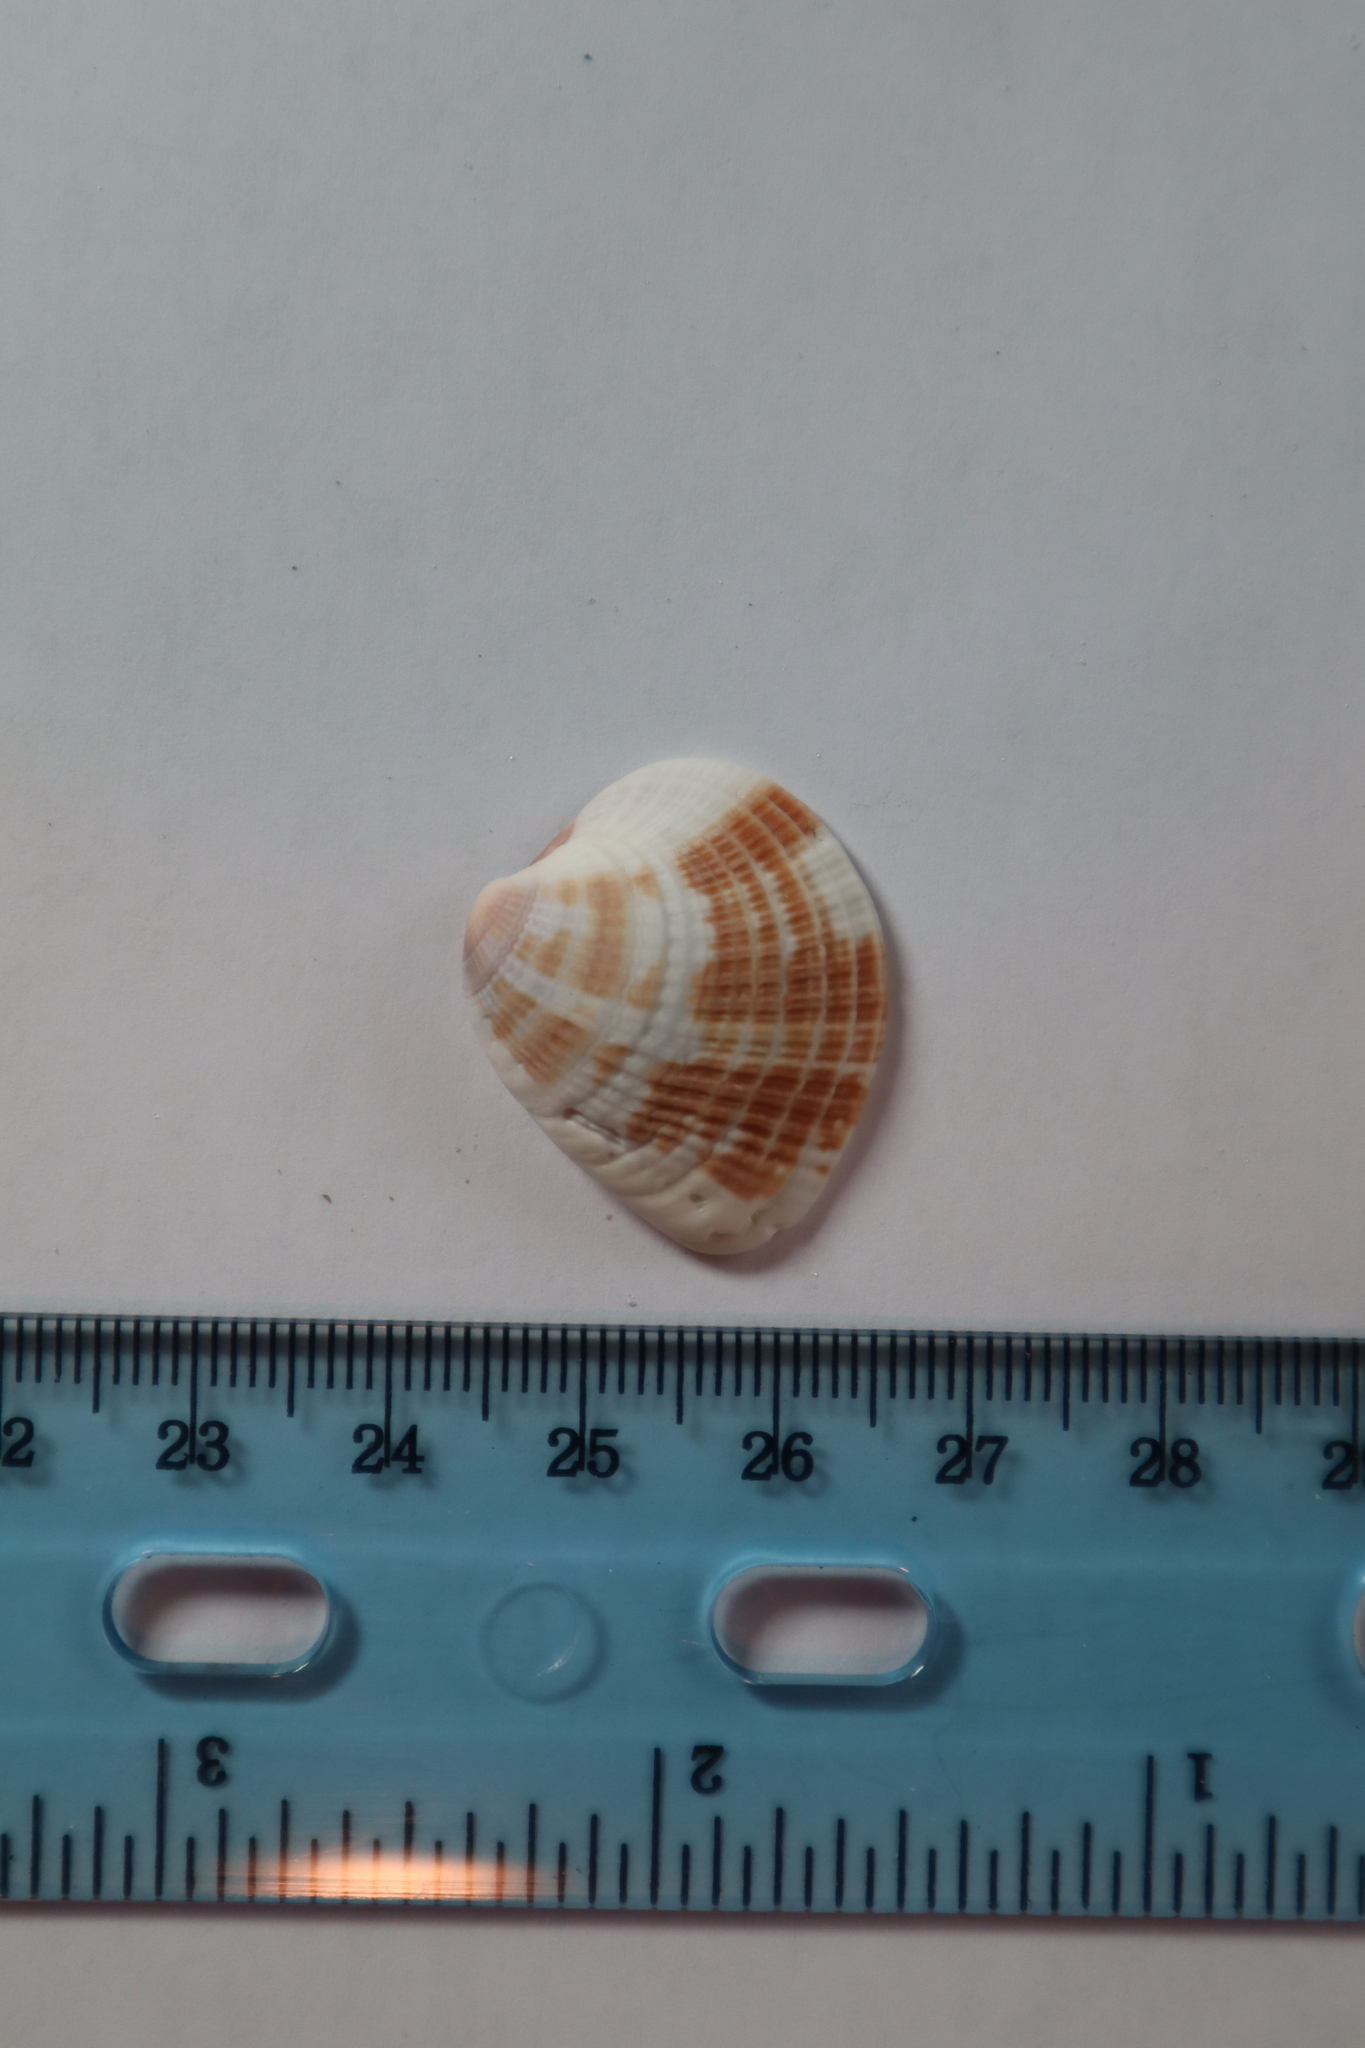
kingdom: Animalia
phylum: Mollusca
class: Bivalvia
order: Venerida
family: Veneridae
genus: Chione
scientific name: Chione elevata
